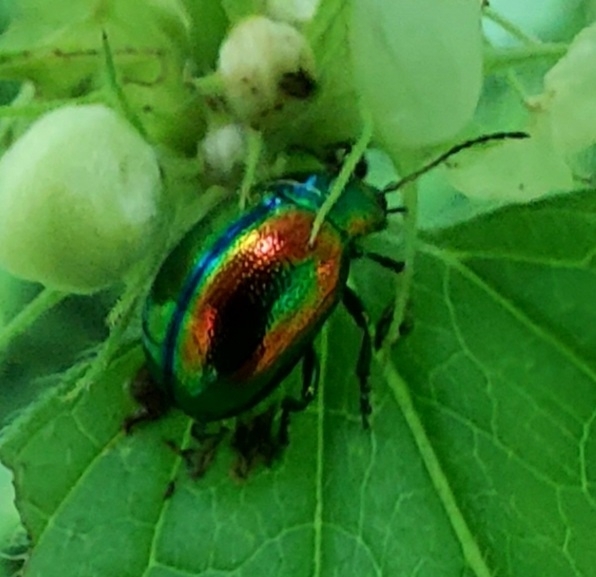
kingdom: Animalia
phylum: Arthropoda
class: Insecta
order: Coleoptera
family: Chrysomelidae
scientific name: Chrysomelidae
